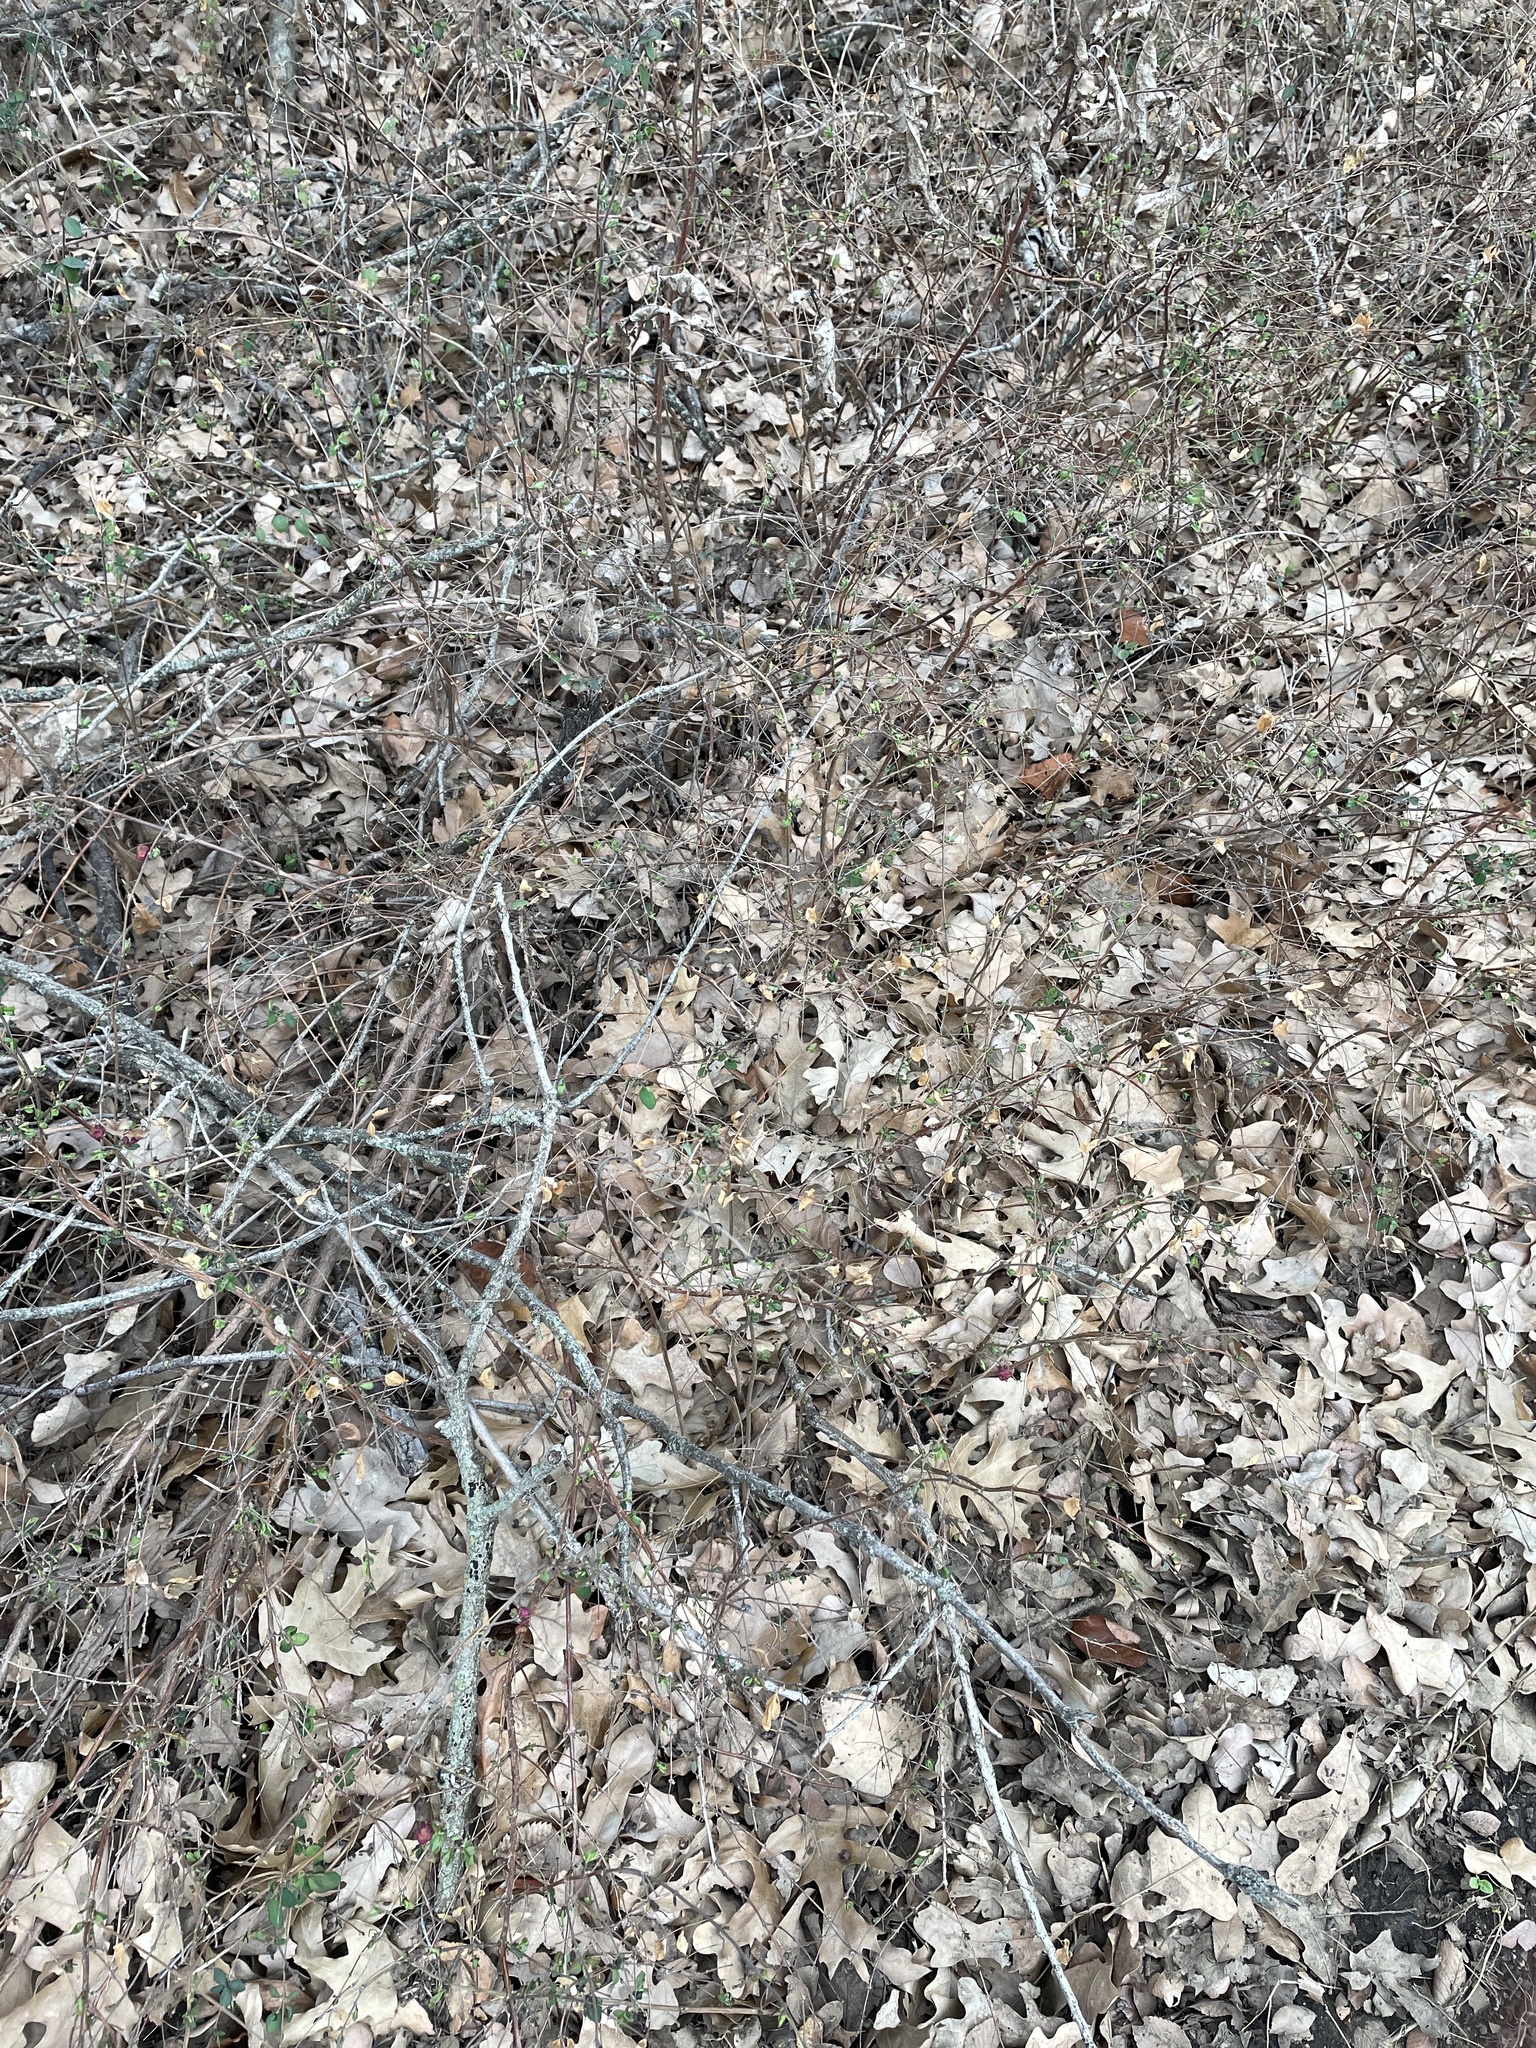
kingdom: Plantae
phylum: Tracheophyta
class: Magnoliopsida
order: Dipsacales
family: Caprifoliaceae
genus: Symphoricarpos
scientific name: Symphoricarpos orbiculatus
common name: Coralberry
